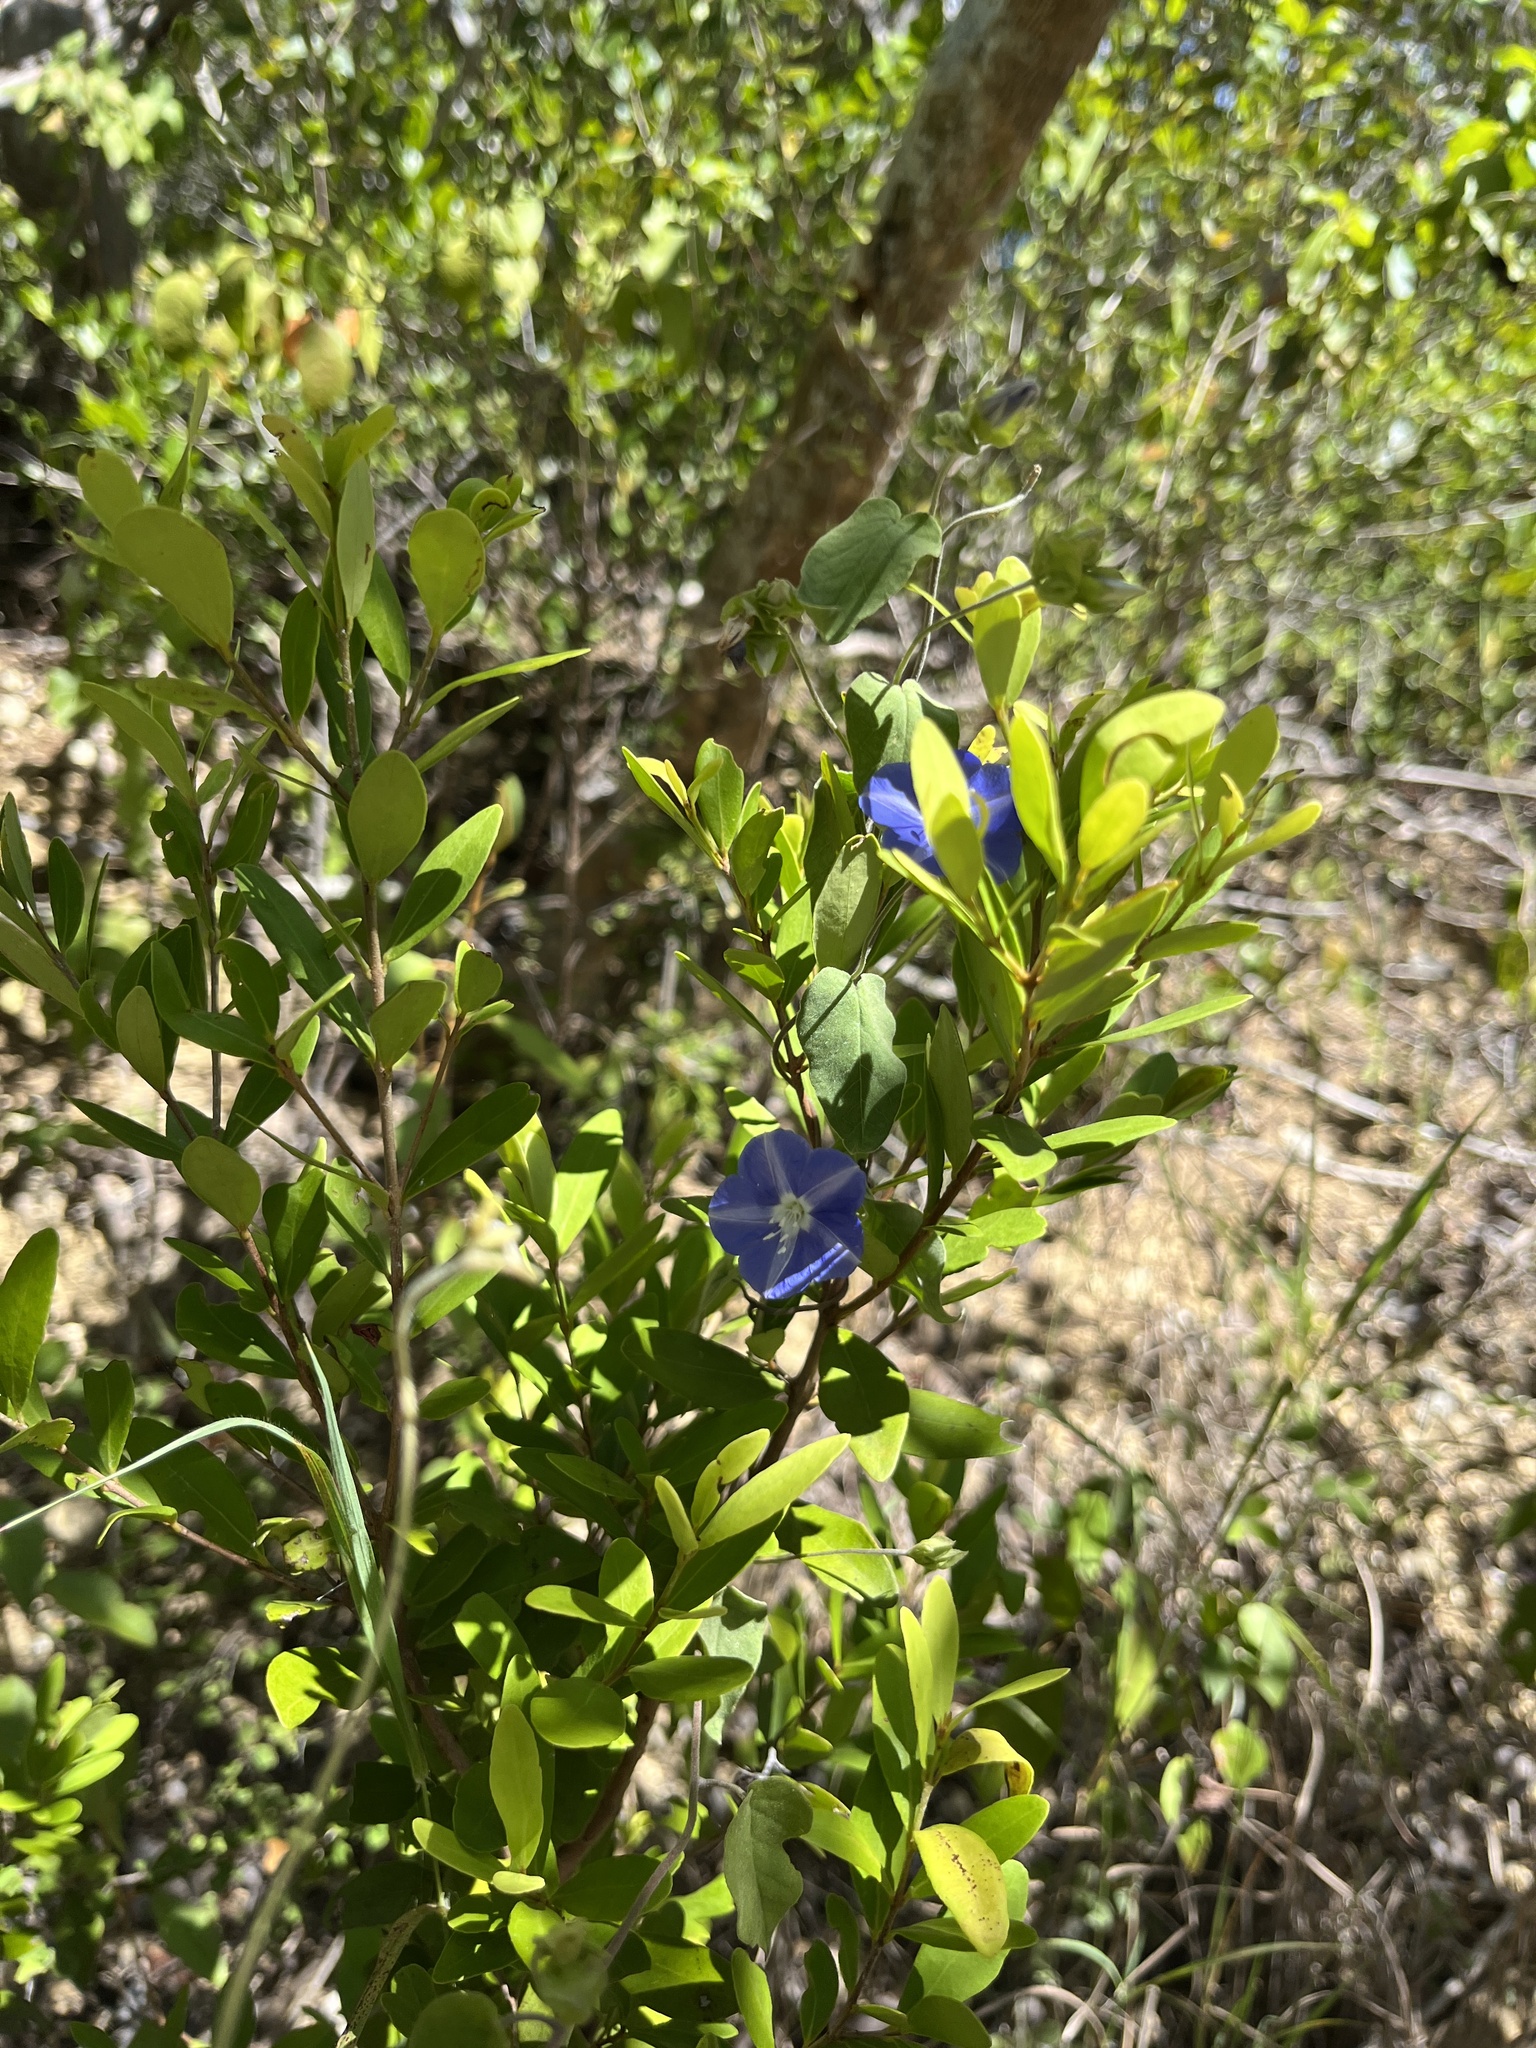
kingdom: Plantae
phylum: Tracheophyta
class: Magnoliopsida
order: Solanales
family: Convolvulaceae
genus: Jacquemontia
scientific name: Jacquemontia pentanthos
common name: Skyblue clustervine
